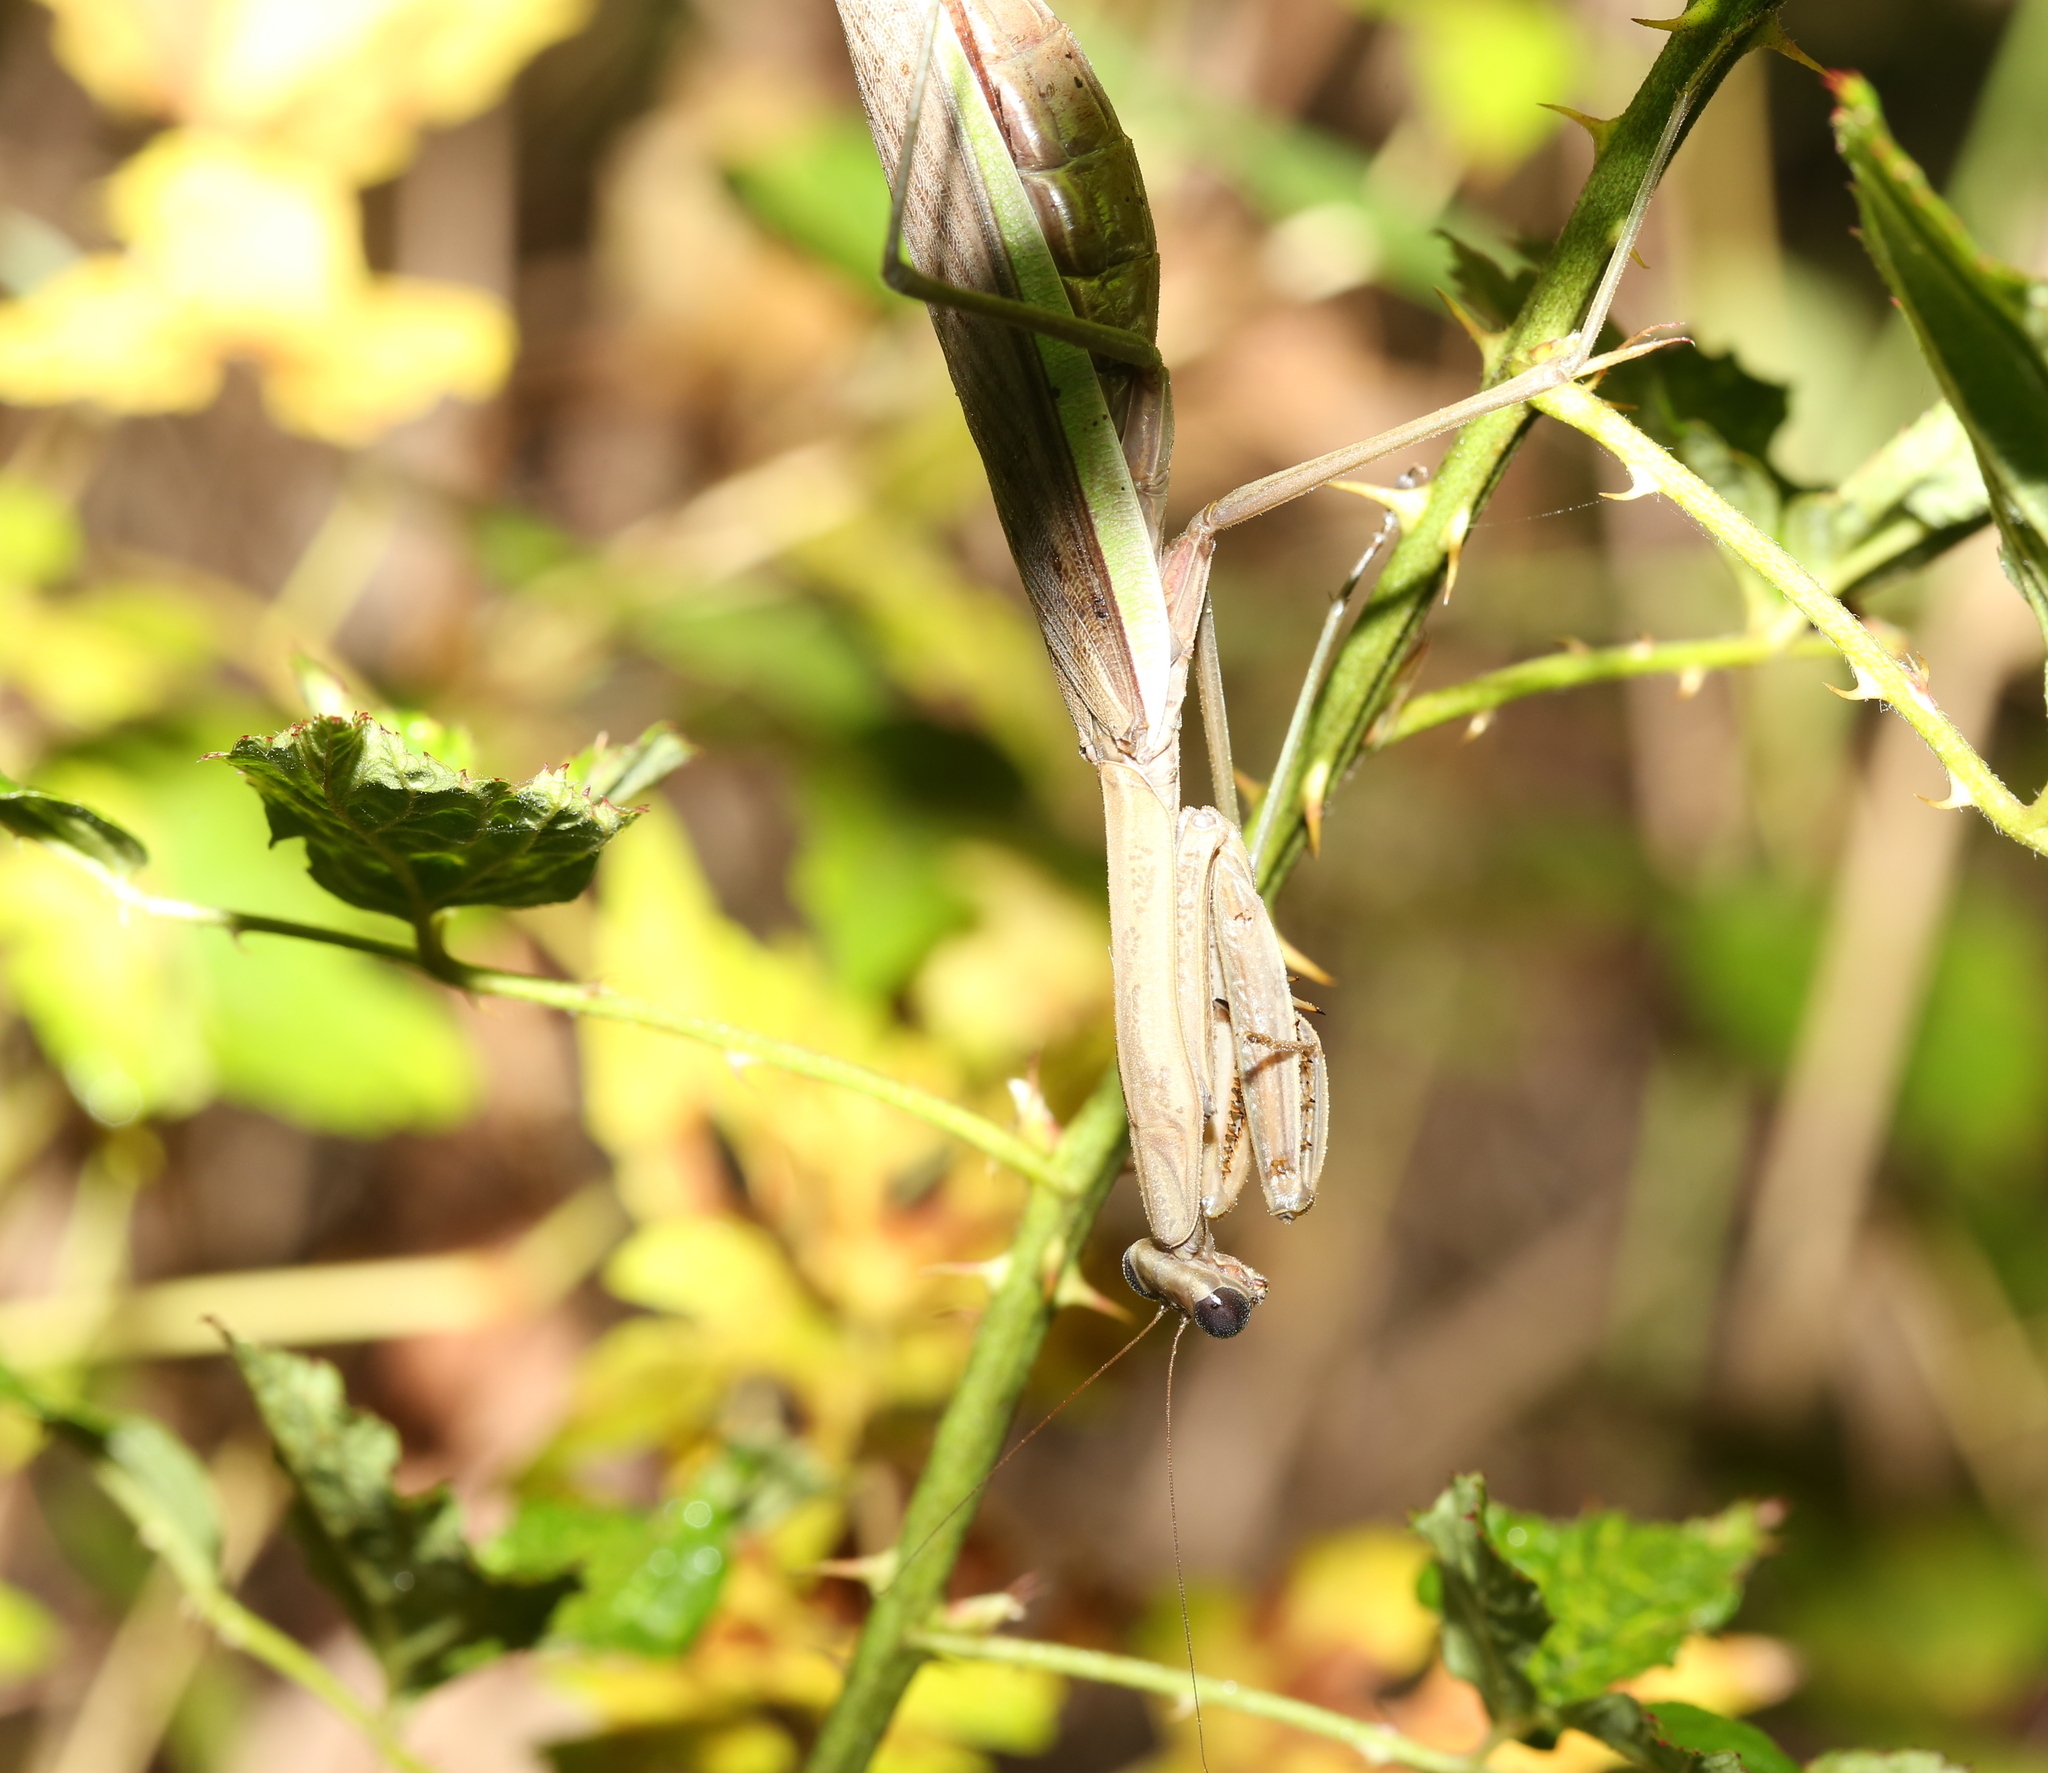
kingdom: Animalia
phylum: Arthropoda
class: Insecta
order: Mantodea
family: Mantidae
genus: Tenodera
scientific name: Tenodera sinensis
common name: Chinese mantis
